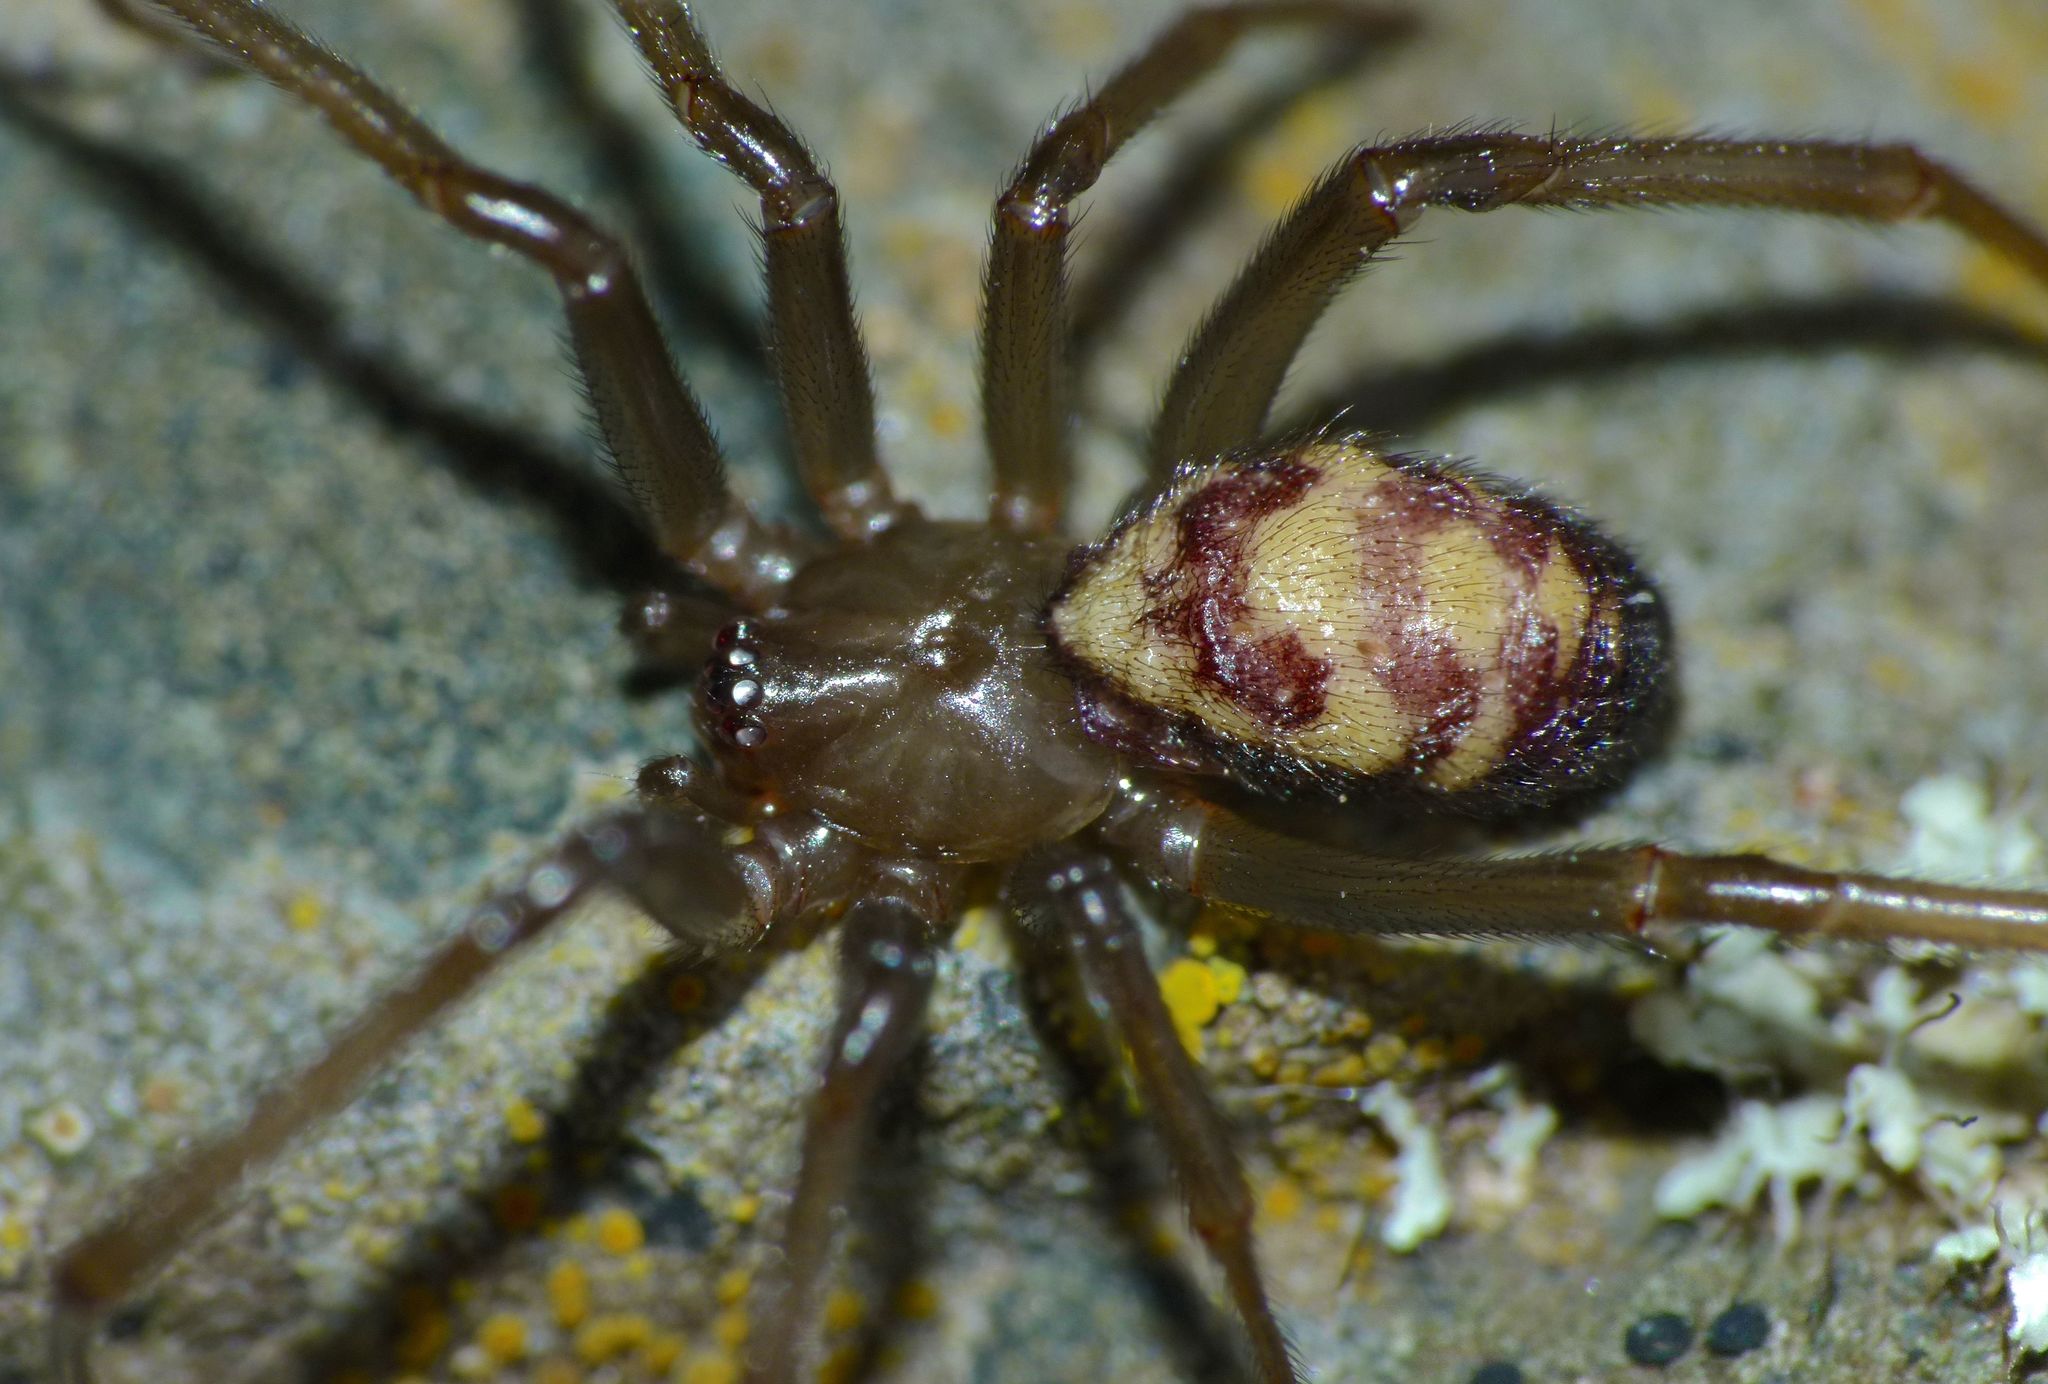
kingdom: Animalia
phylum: Arthropoda
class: Arachnida
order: Araneae
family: Theridiidae
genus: Steatoda
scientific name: Steatoda grossa
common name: False black widow
